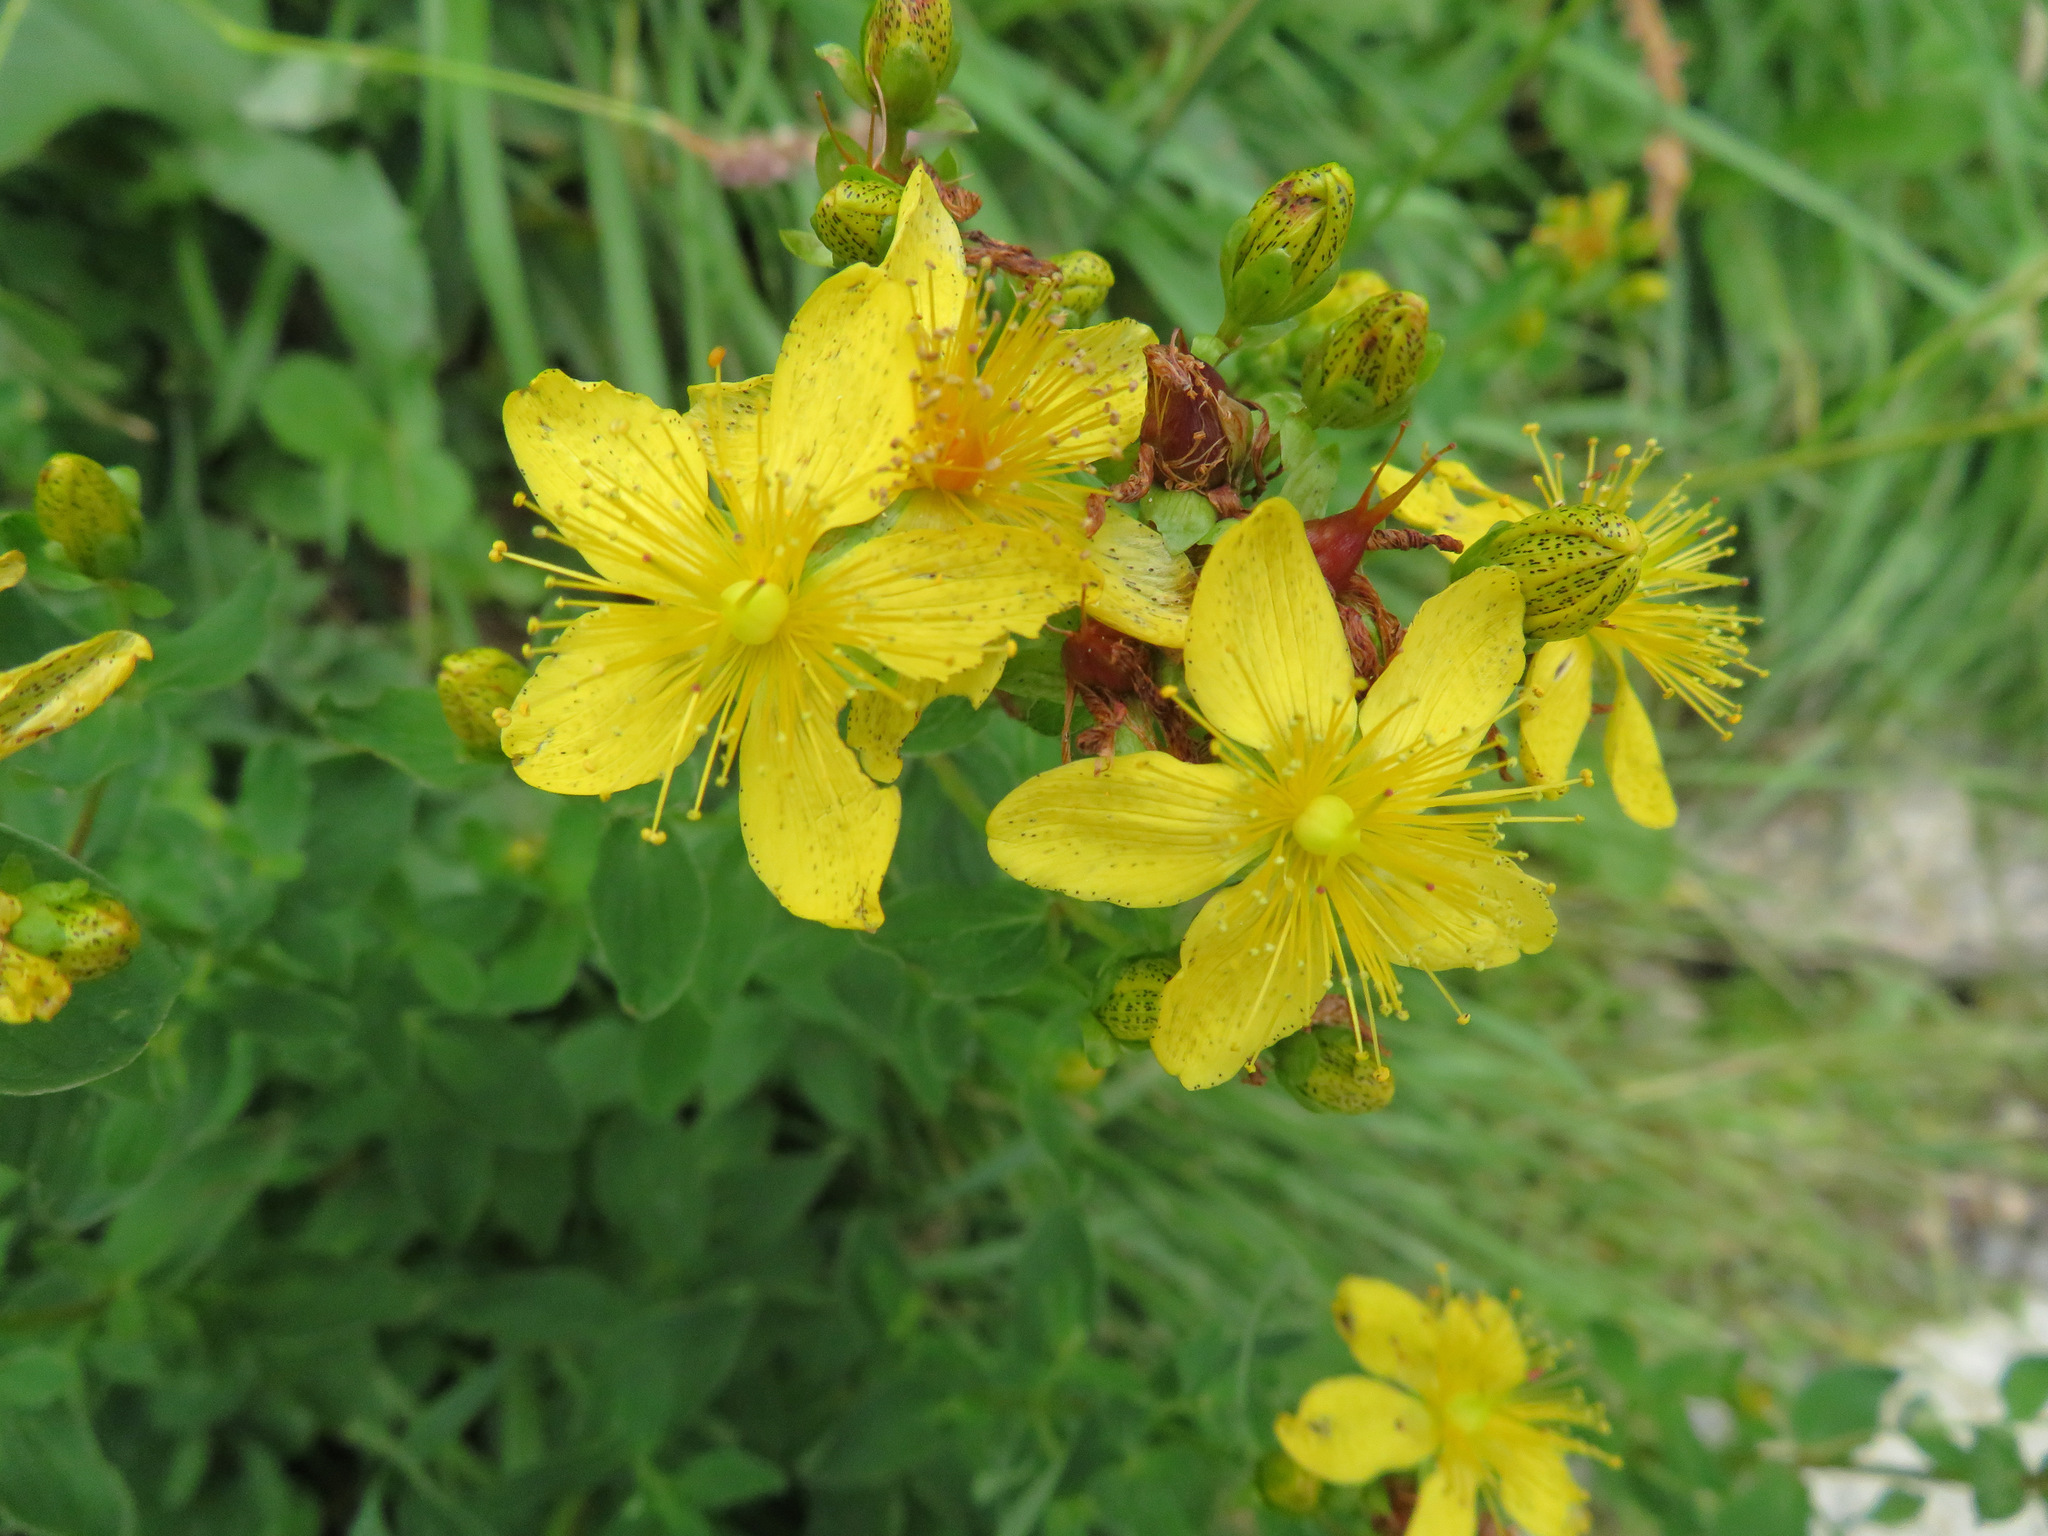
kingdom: Plantae
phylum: Tracheophyta
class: Magnoliopsida
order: Malpighiales
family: Hypericaceae
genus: Hypericum
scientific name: Hypericum maculatum
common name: Imperforate st. john's-wort
